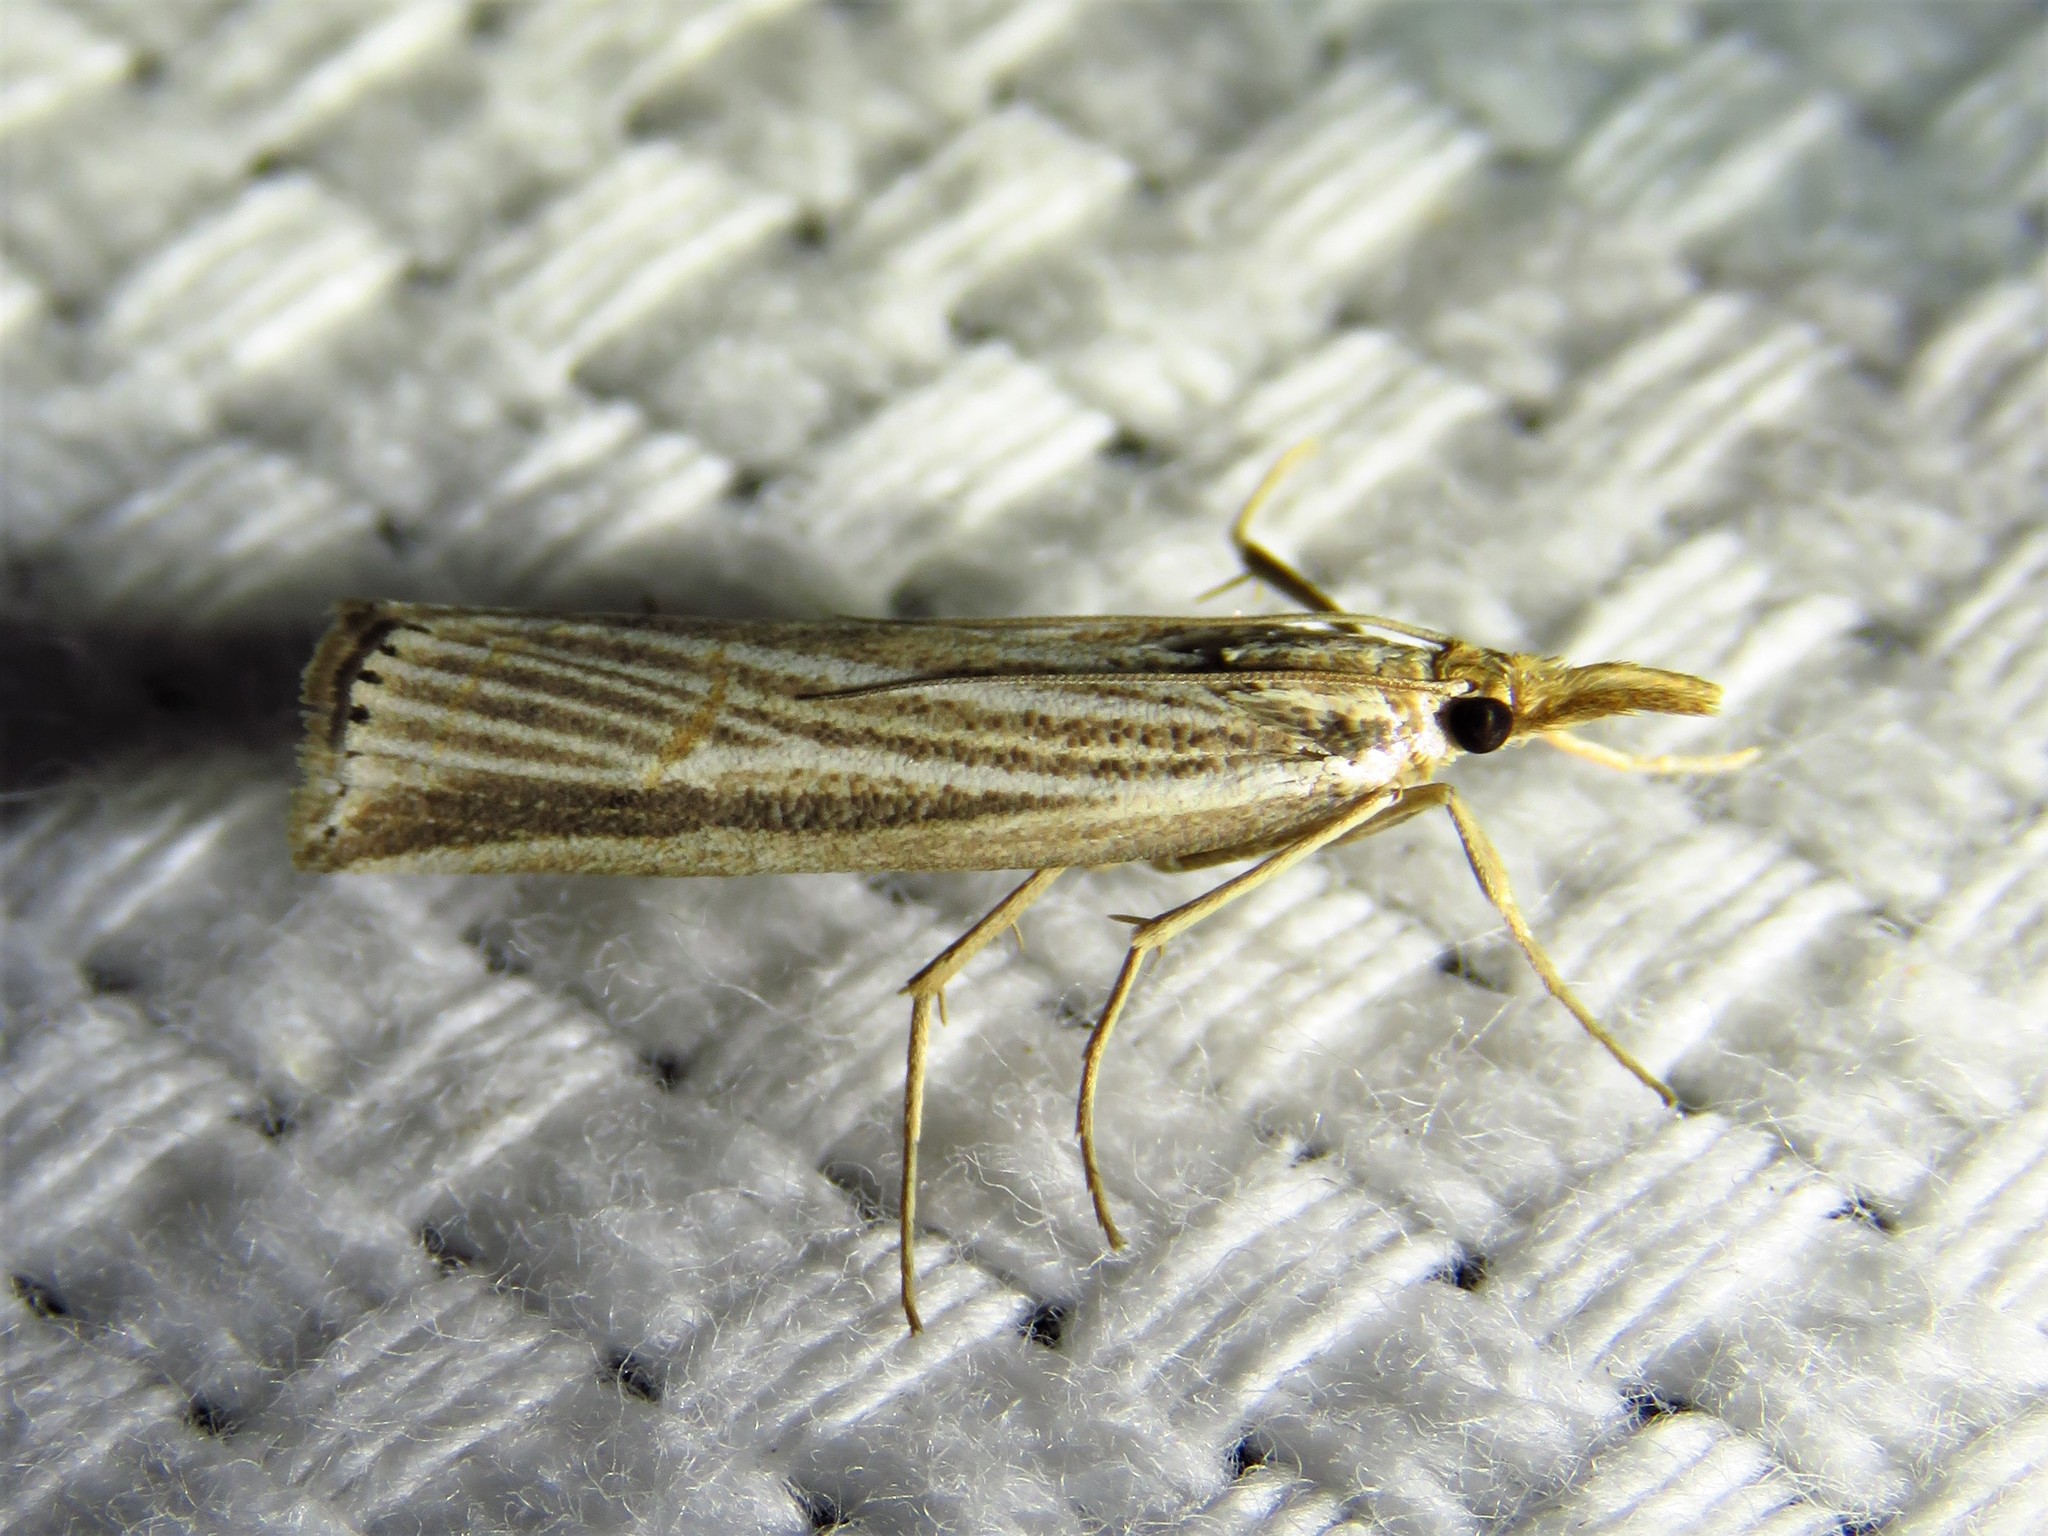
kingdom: Animalia
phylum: Arthropoda
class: Insecta
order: Lepidoptera
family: Crambidae
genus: Thaumatopsis
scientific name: Thaumatopsis bolterellus
